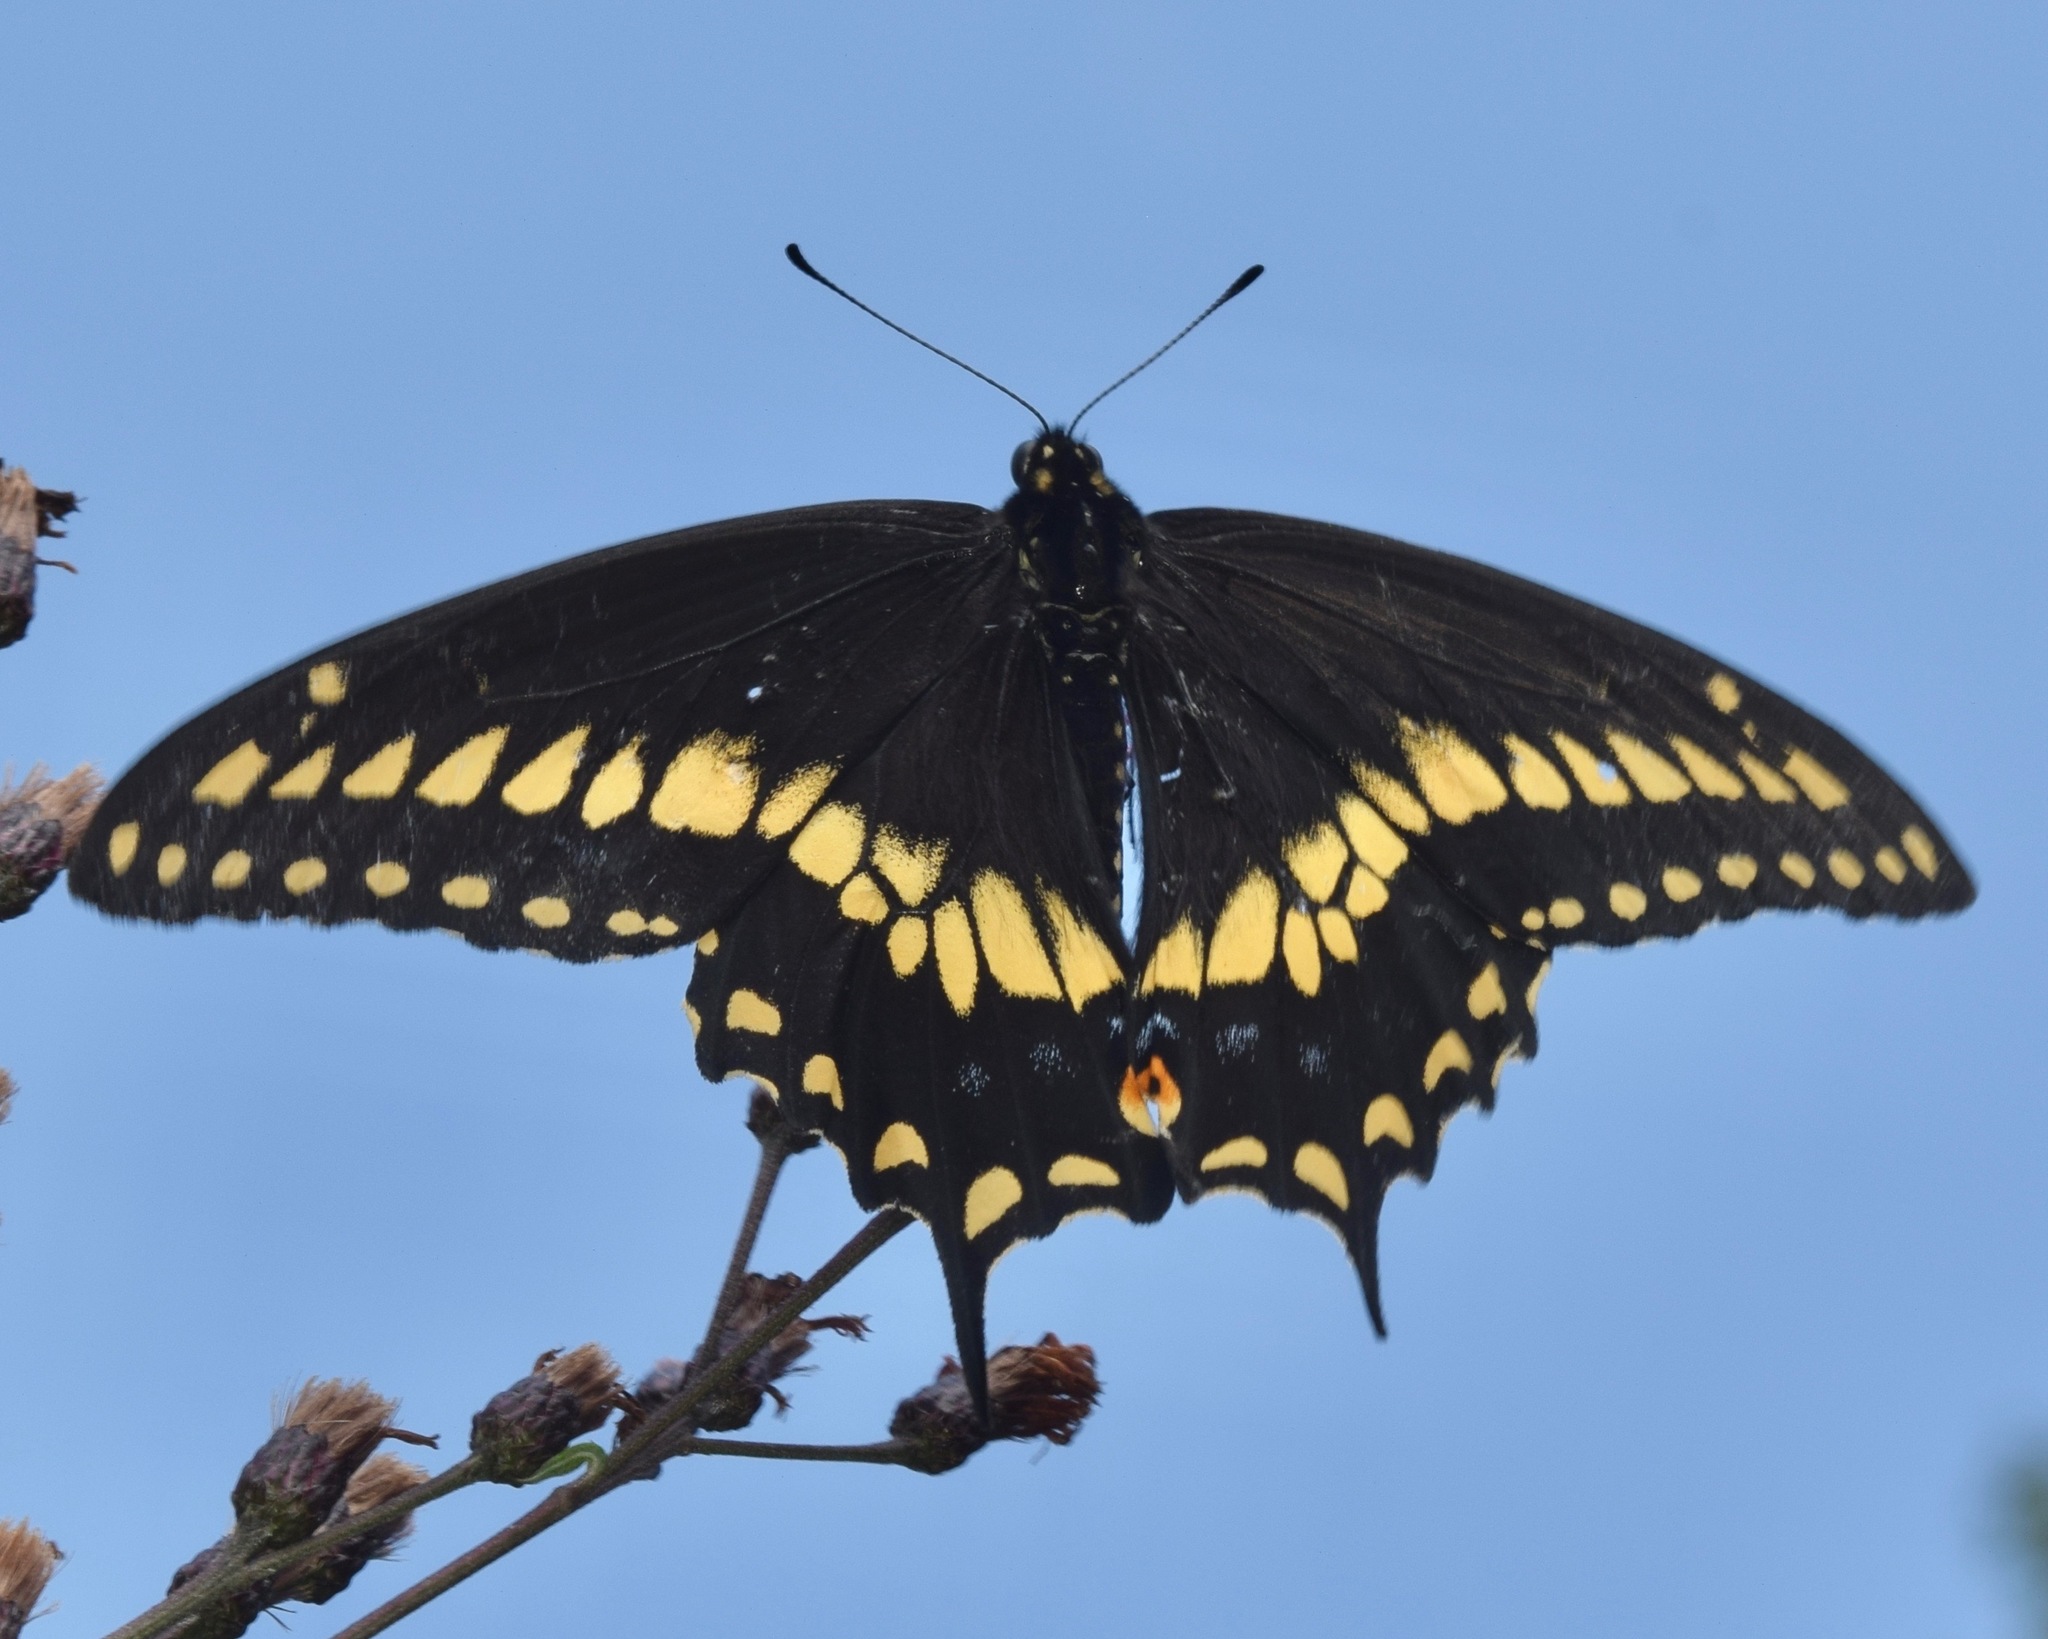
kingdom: Animalia
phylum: Arthropoda
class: Insecta
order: Lepidoptera
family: Papilionidae
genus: Papilio
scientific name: Papilio polyxenes
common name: Black swallowtail
